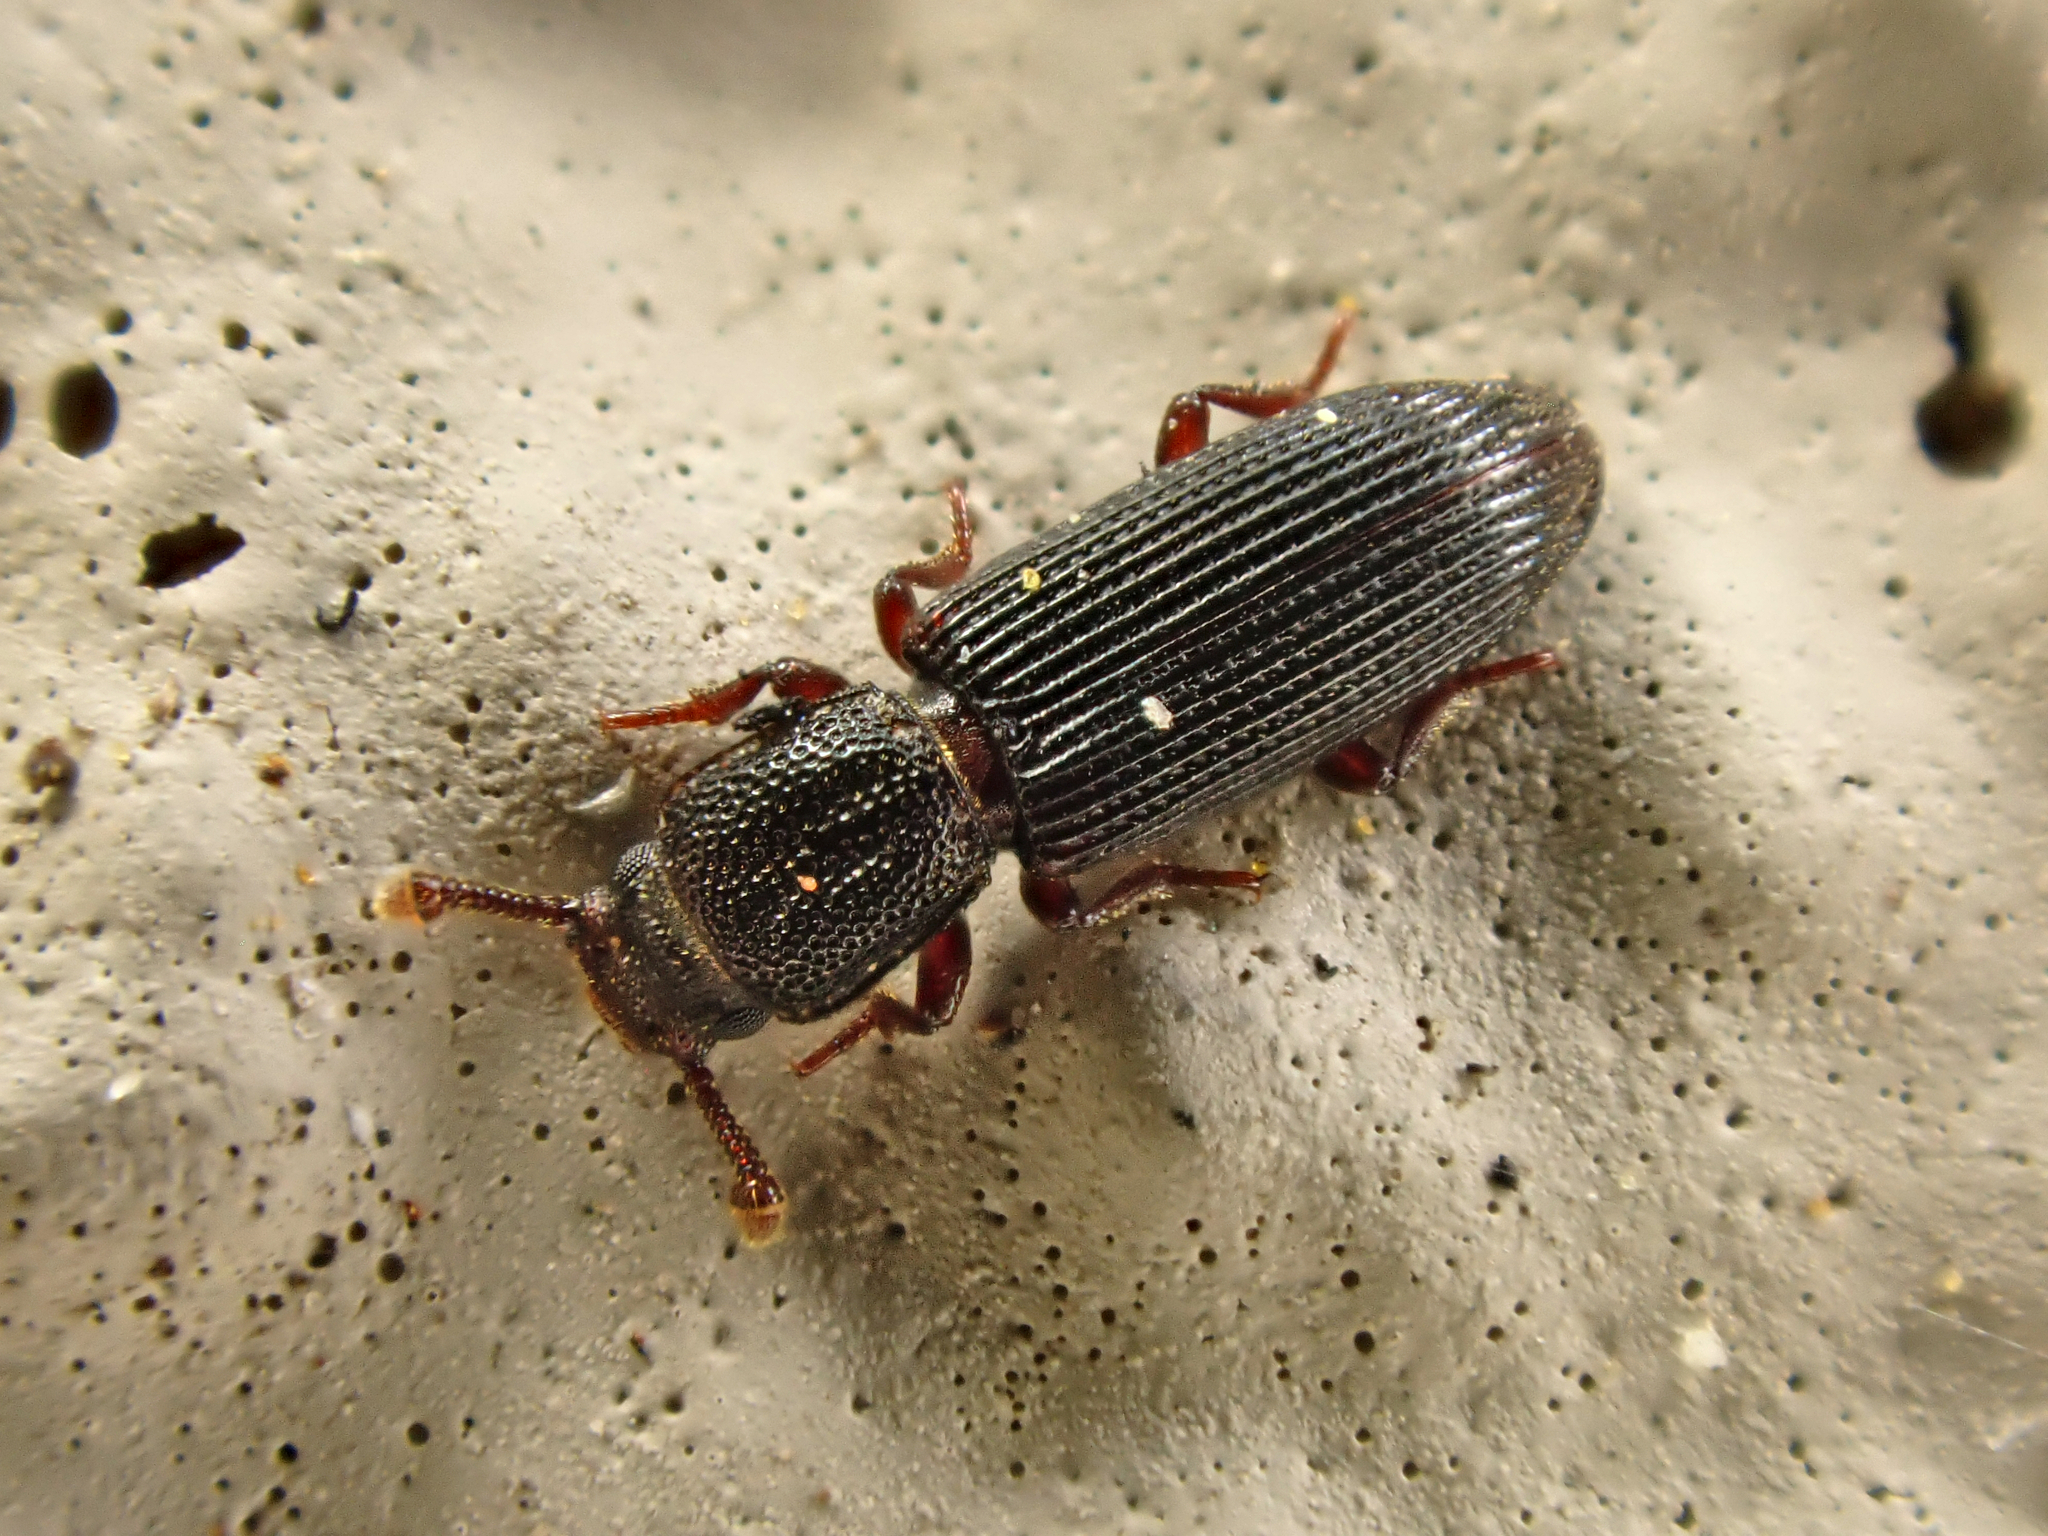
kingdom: Animalia
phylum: Arthropoda
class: Insecta
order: Coleoptera
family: Zopheridae
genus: Pycnomerus
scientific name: Pycnomerus
